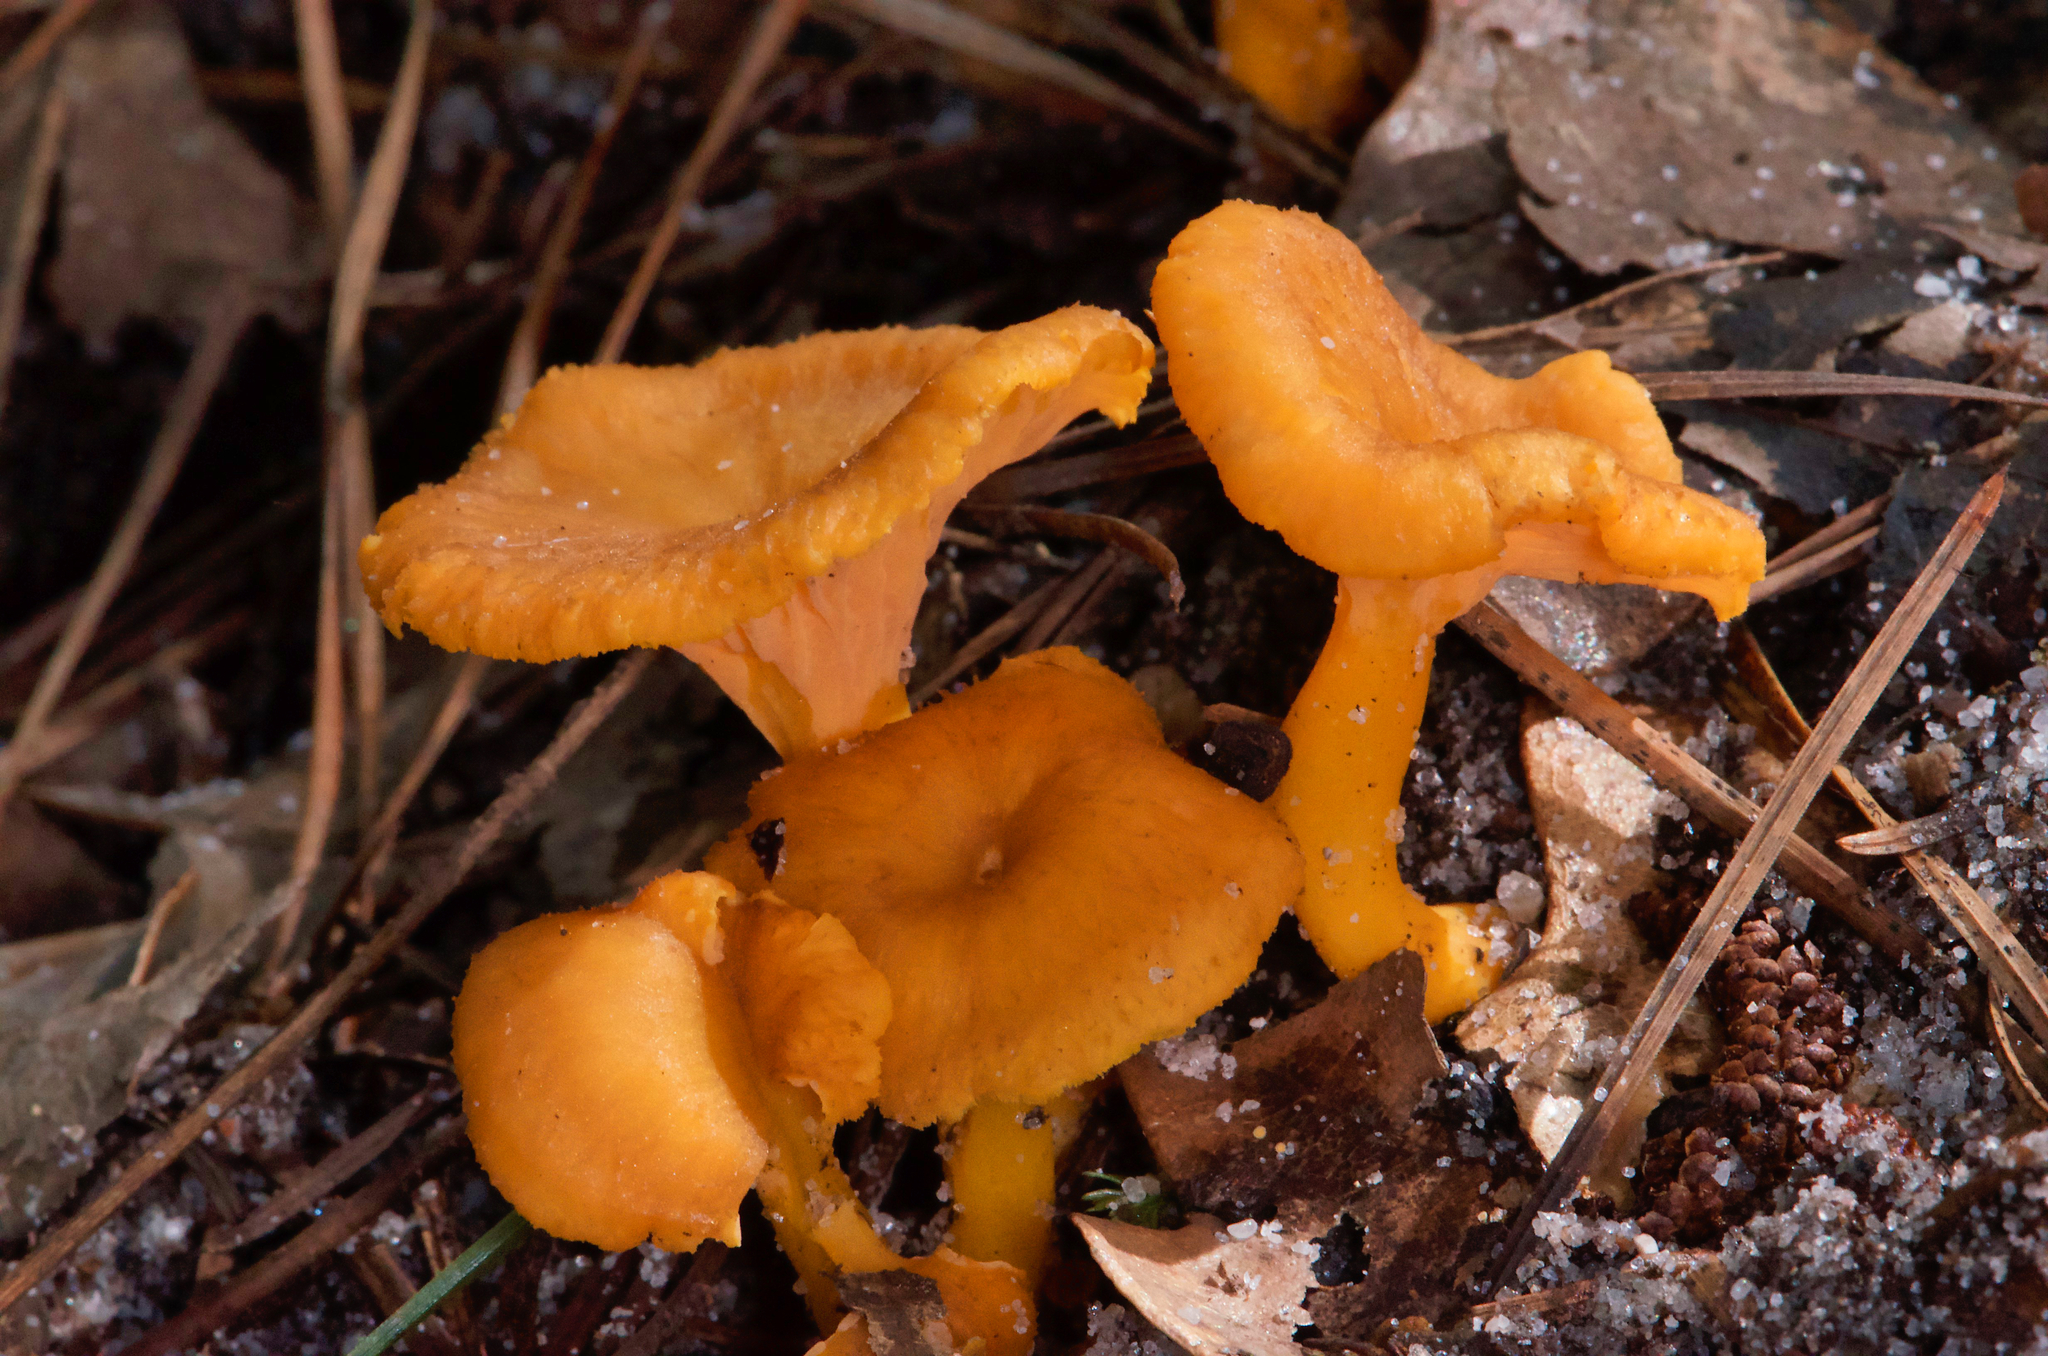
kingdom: Fungi
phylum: Basidiomycota
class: Agaricomycetes
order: Cantharellales
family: Hydnaceae
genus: Craterellus
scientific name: Craterellus ignicolor
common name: Flame chanterelle
